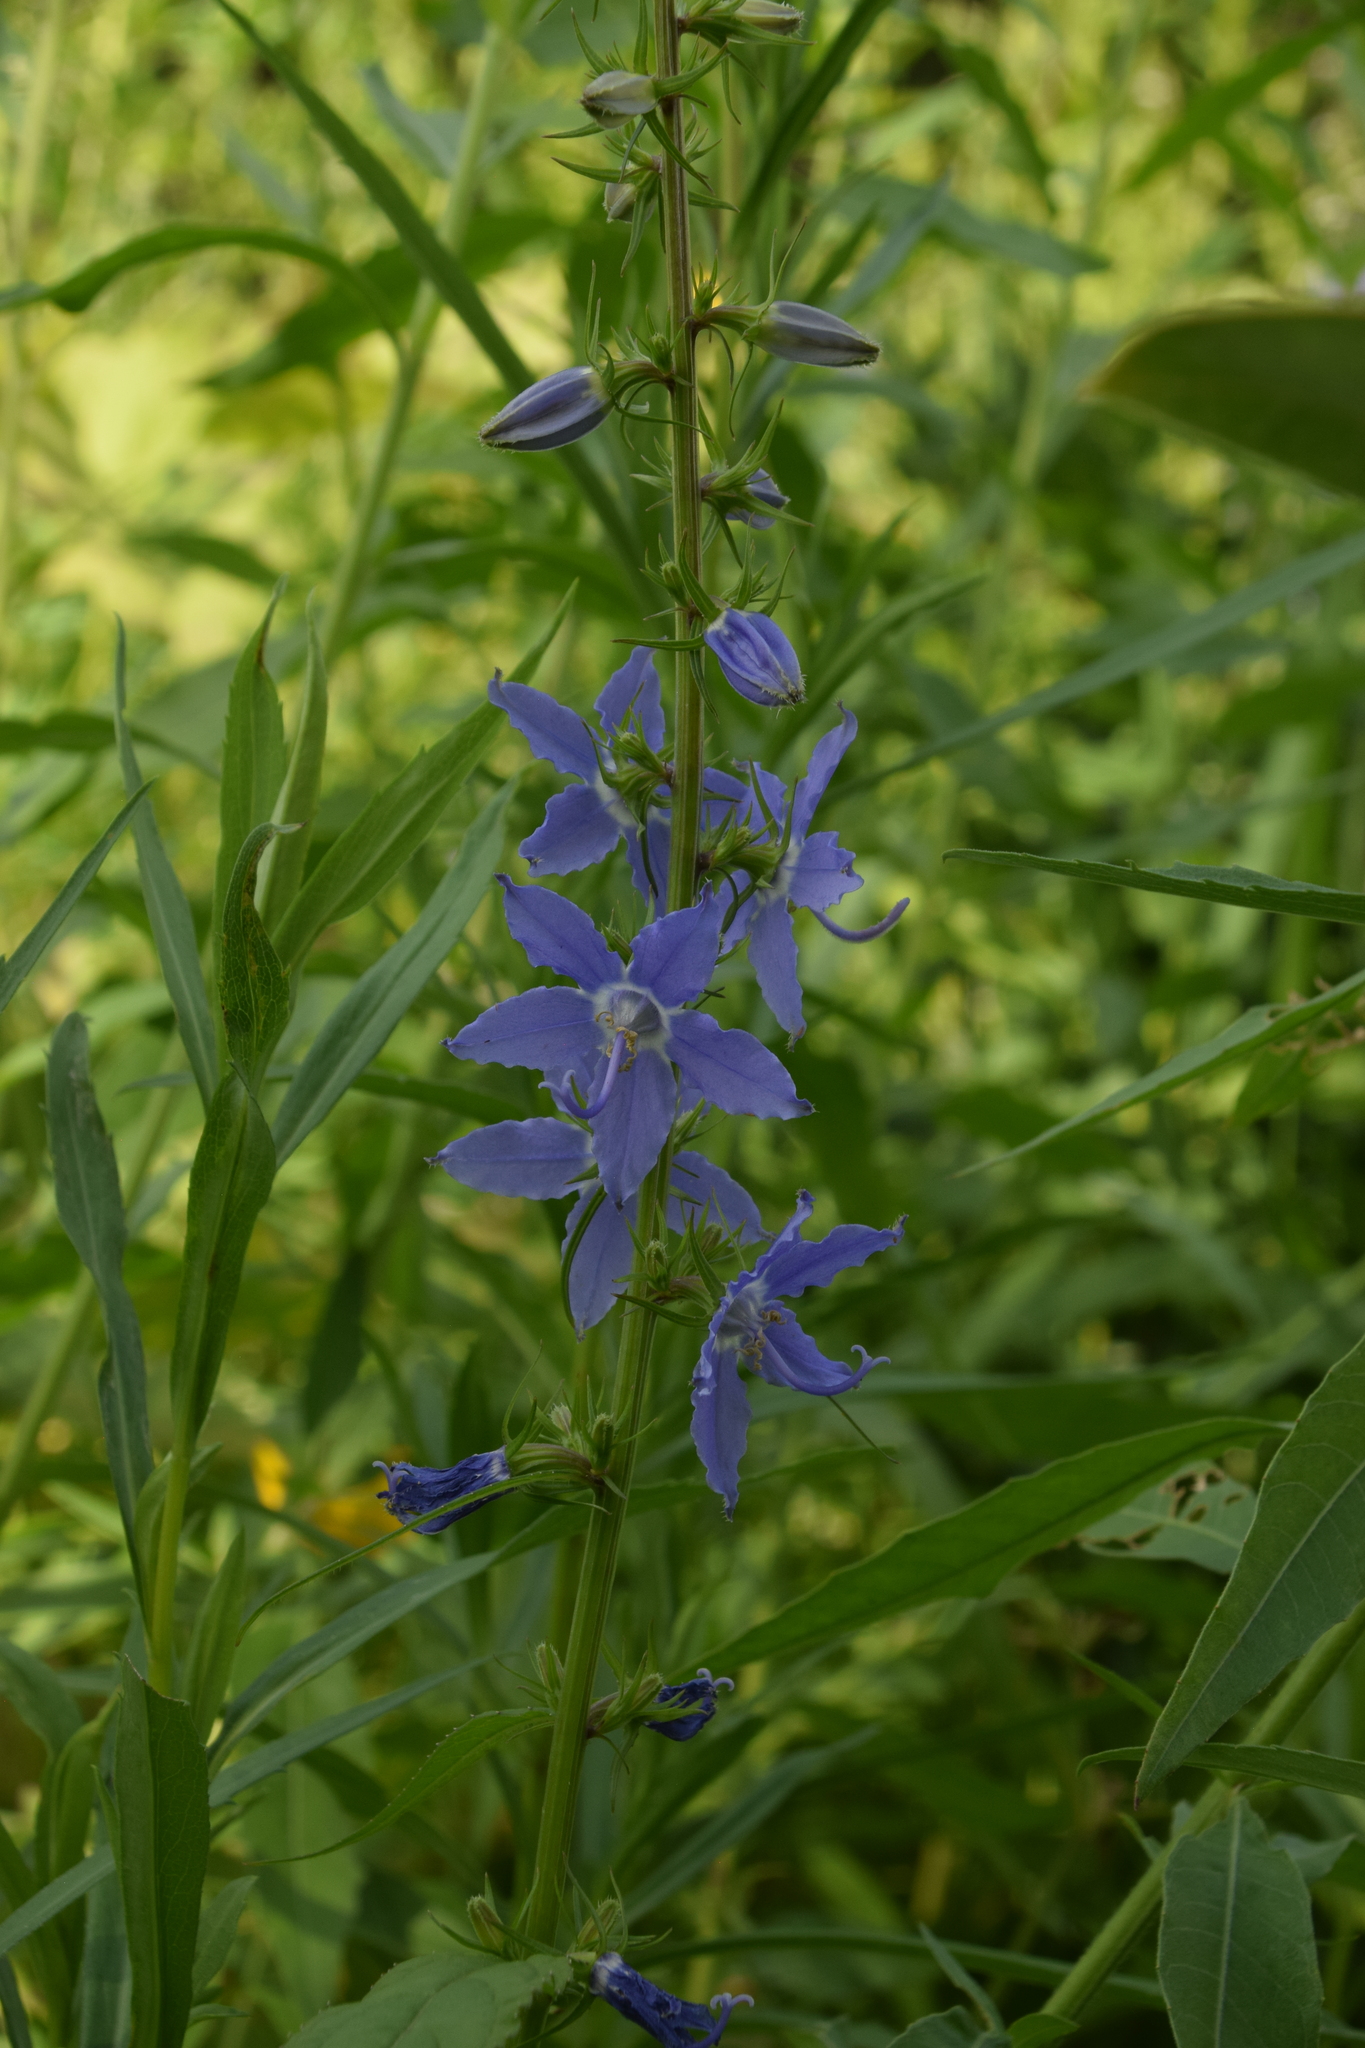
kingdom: Plantae
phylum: Tracheophyta
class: Magnoliopsida
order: Asterales
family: Campanulaceae
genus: Campanulastrum
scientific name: Campanulastrum americanum
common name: American bellflower
